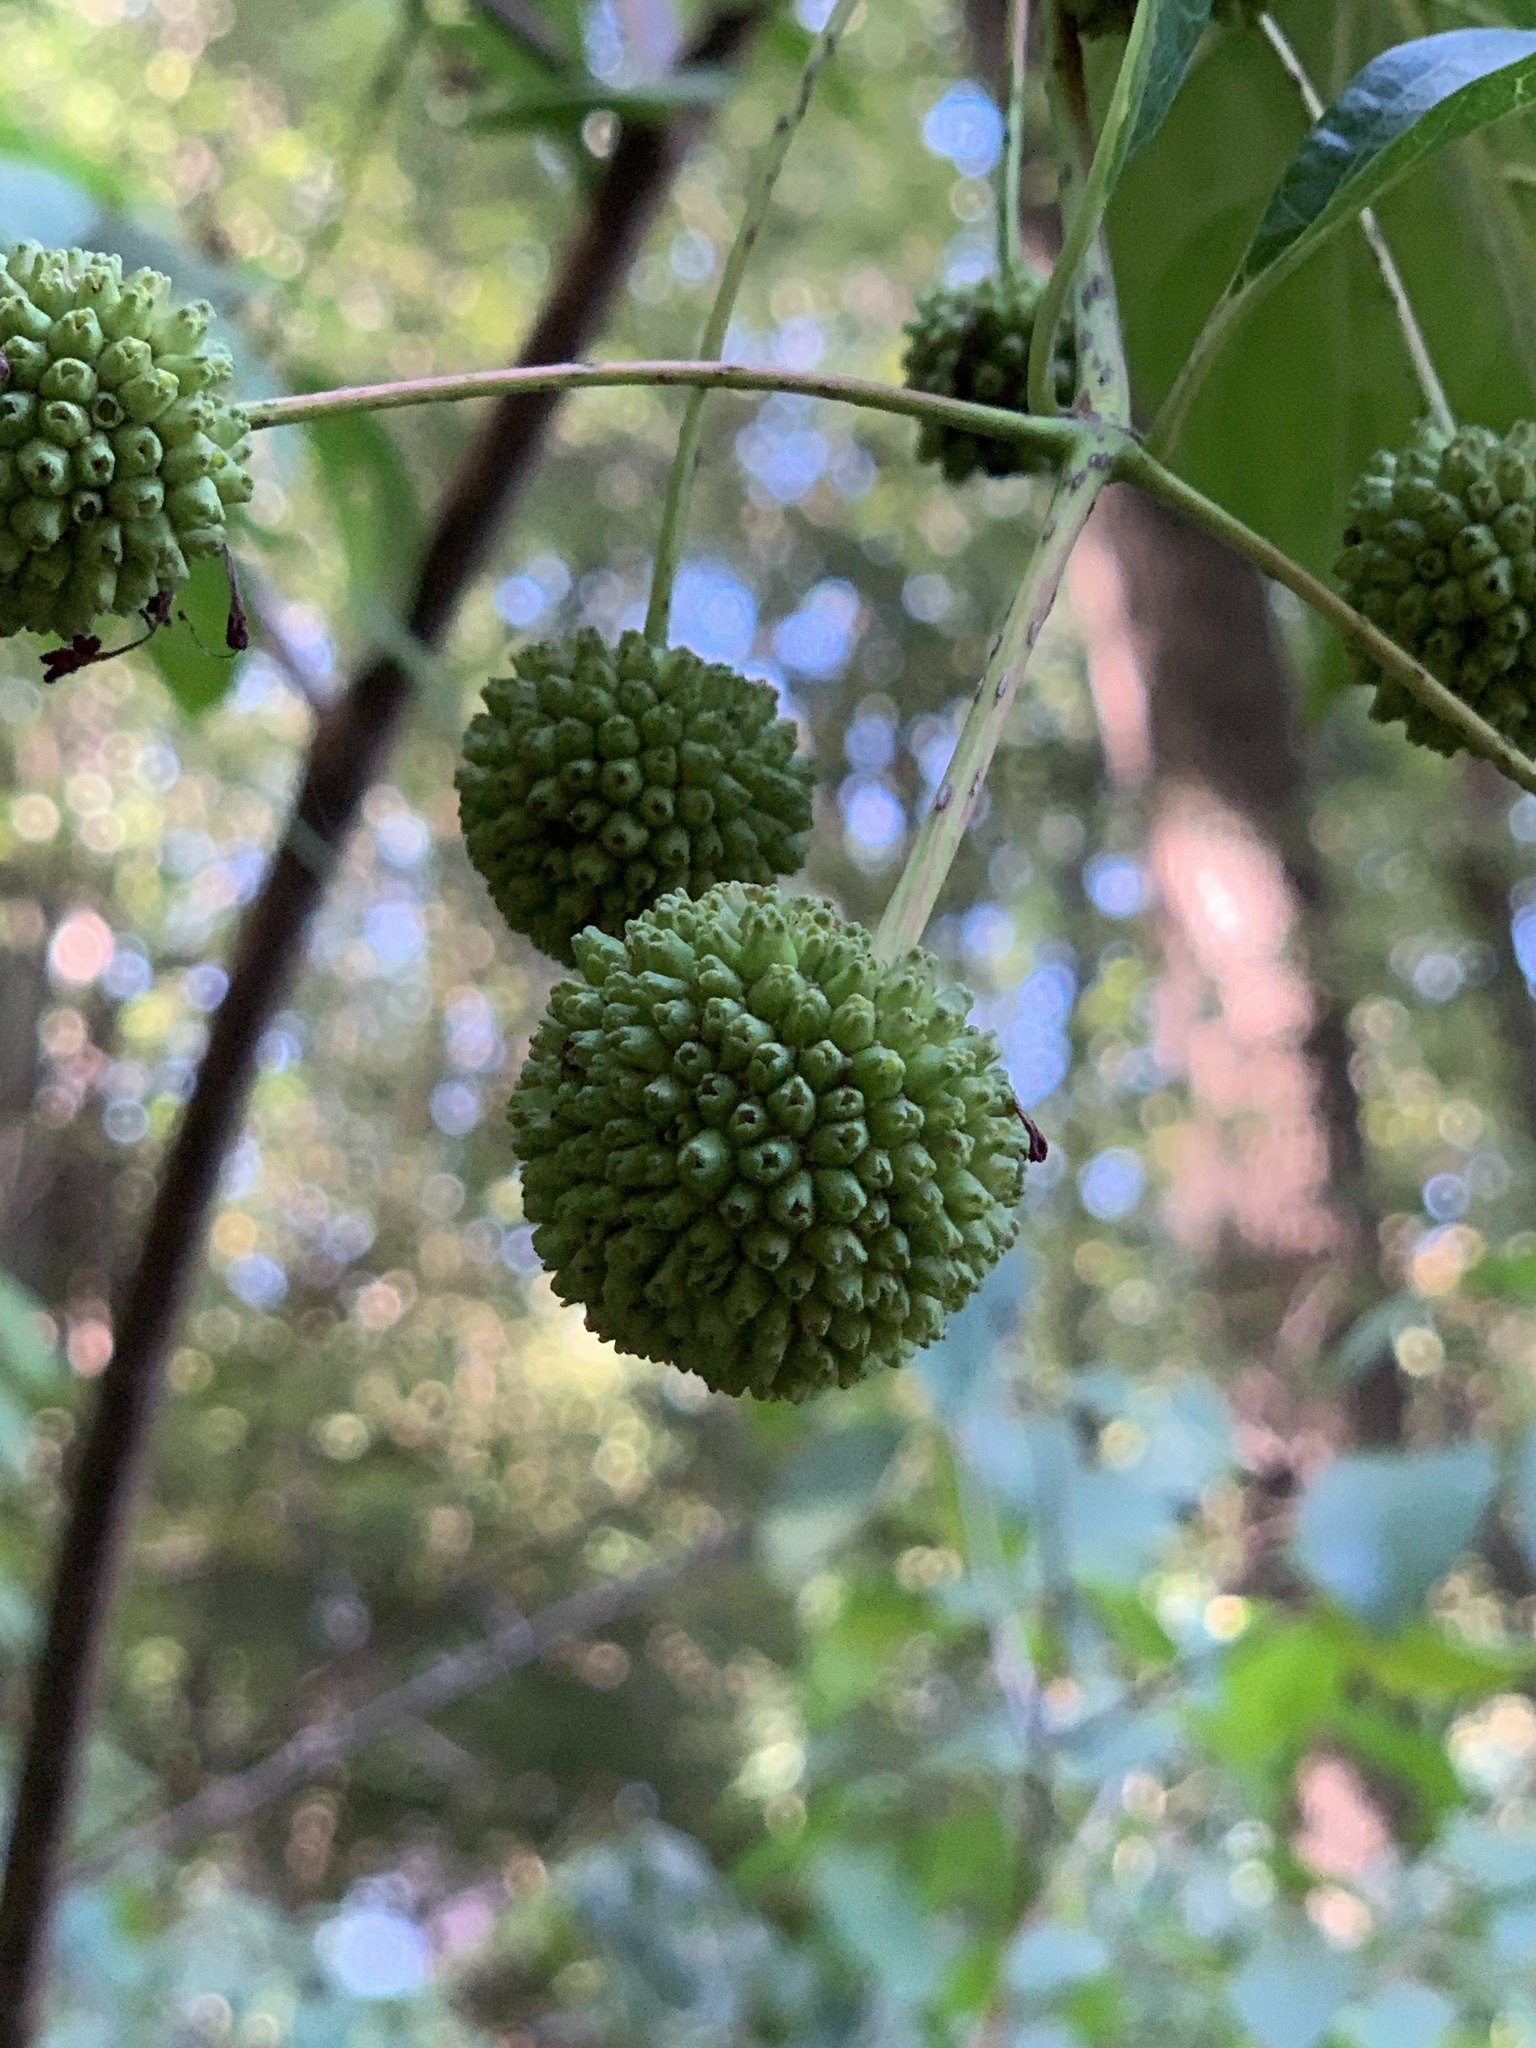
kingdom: Plantae
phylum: Tracheophyta
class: Magnoliopsida
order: Gentianales
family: Rubiaceae
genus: Cephalanthus
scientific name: Cephalanthus occidentalis
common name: Button-willow
